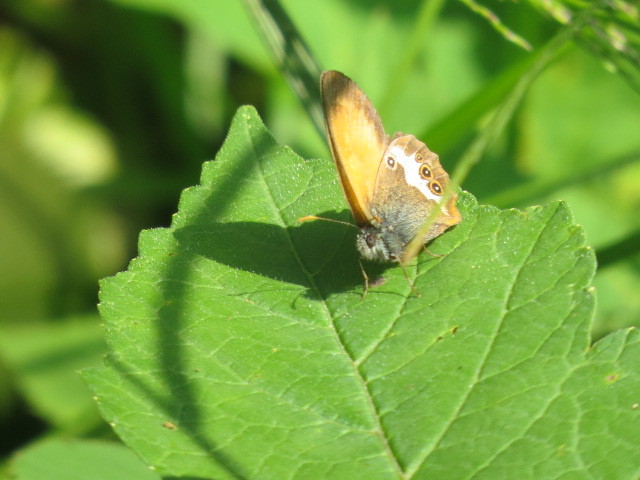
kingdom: Animalia
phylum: Arthropoda
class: Insecta
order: Lepidoptera
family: Nymphalidae
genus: Coenonympha
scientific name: Coenonympha arcania
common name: Pearly heath
